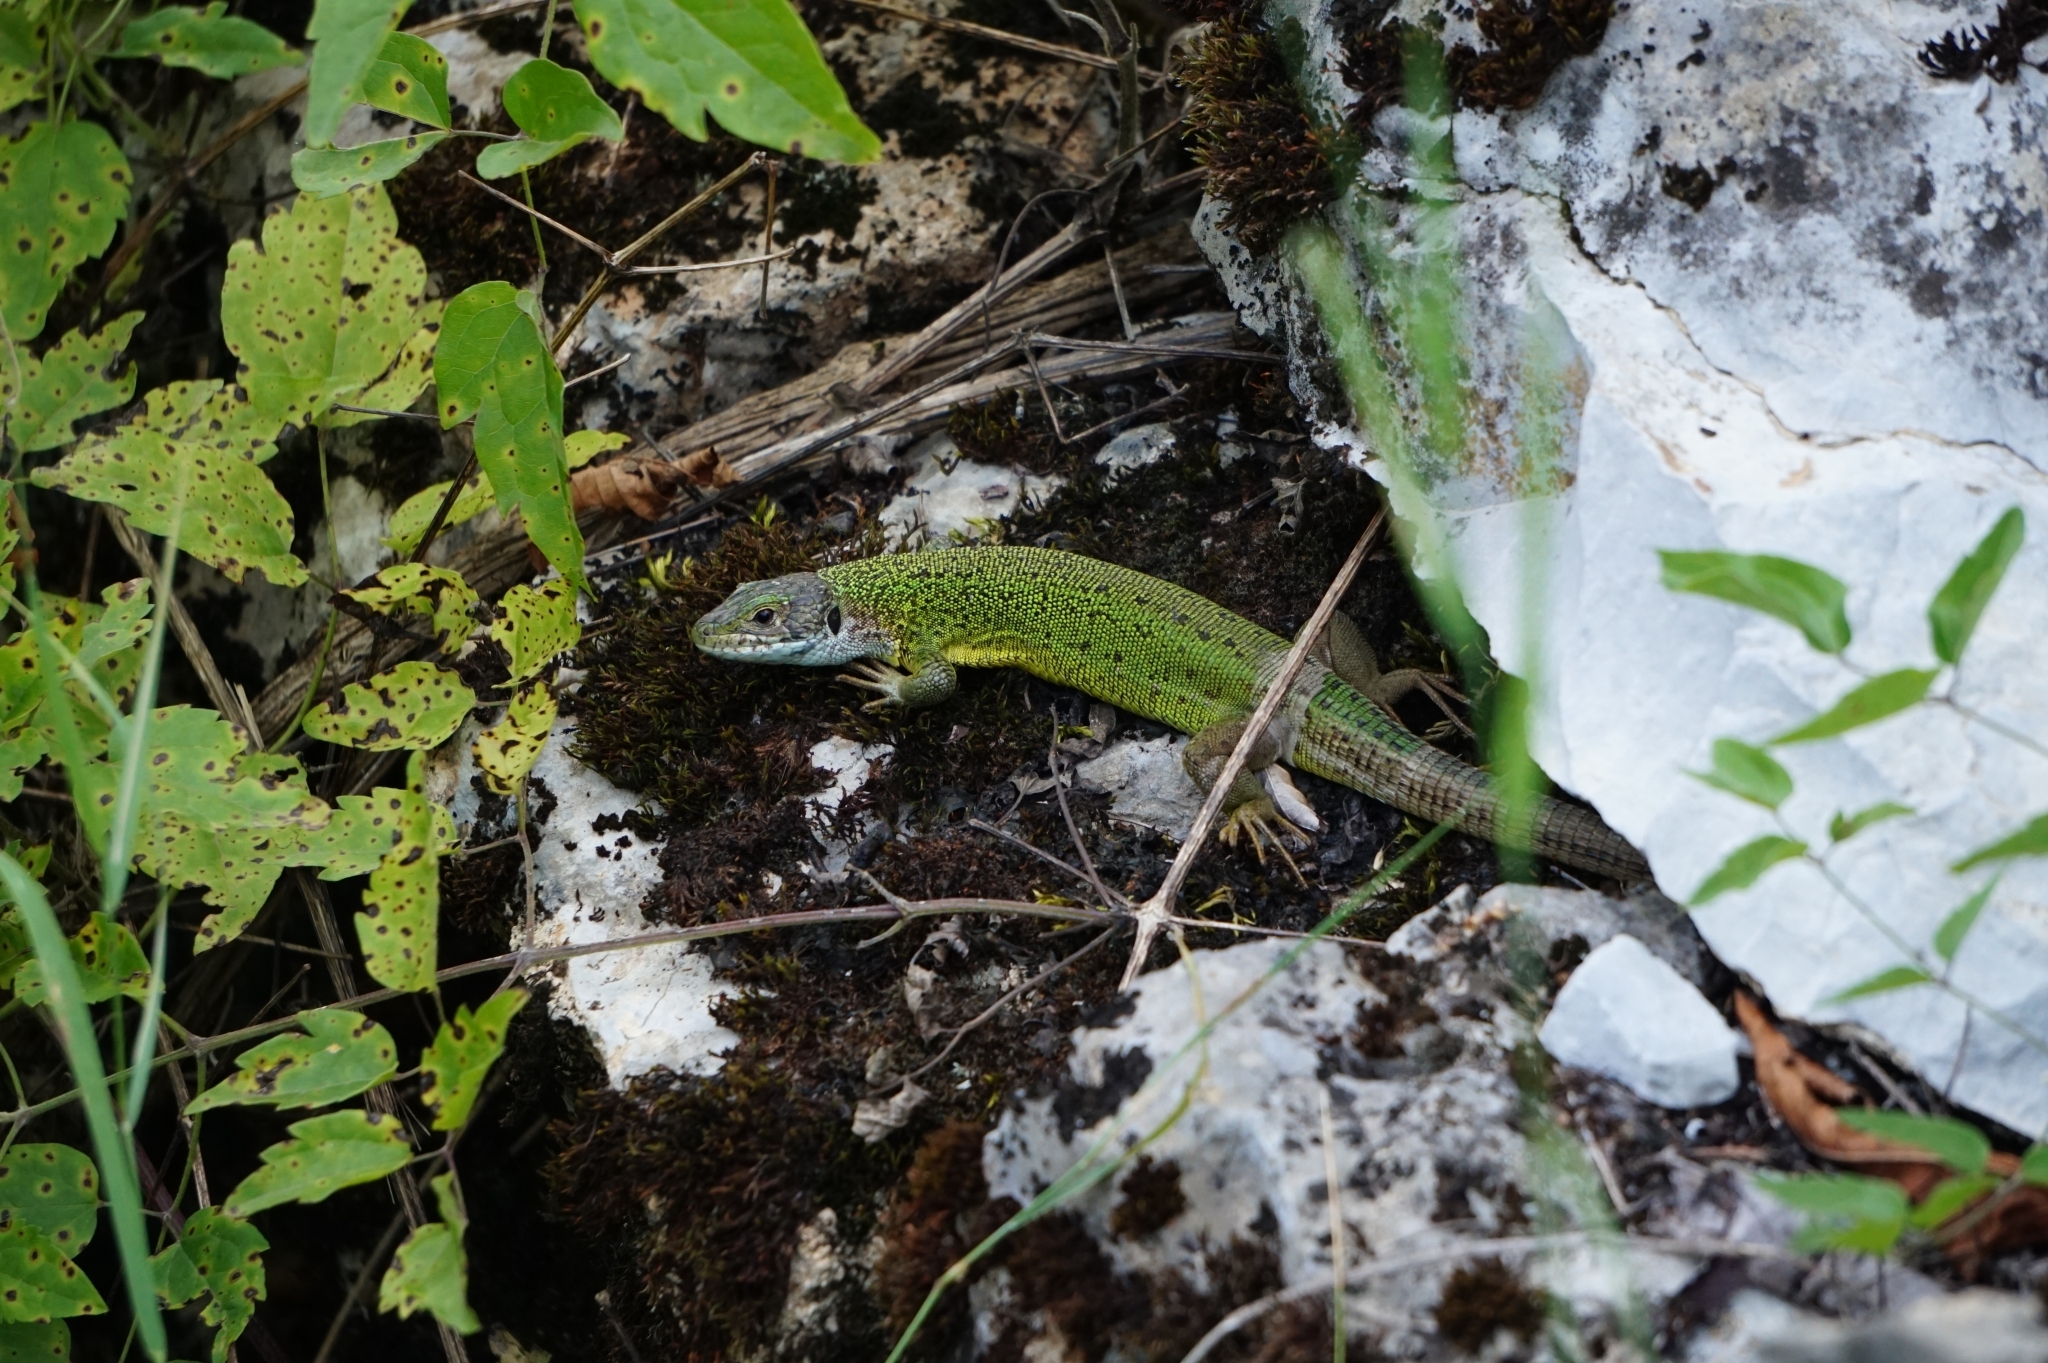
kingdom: Animalia
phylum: Chordata
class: Squamata
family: Lacertidae
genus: Lacerta
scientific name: Lacerta viridis
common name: European green lizard
